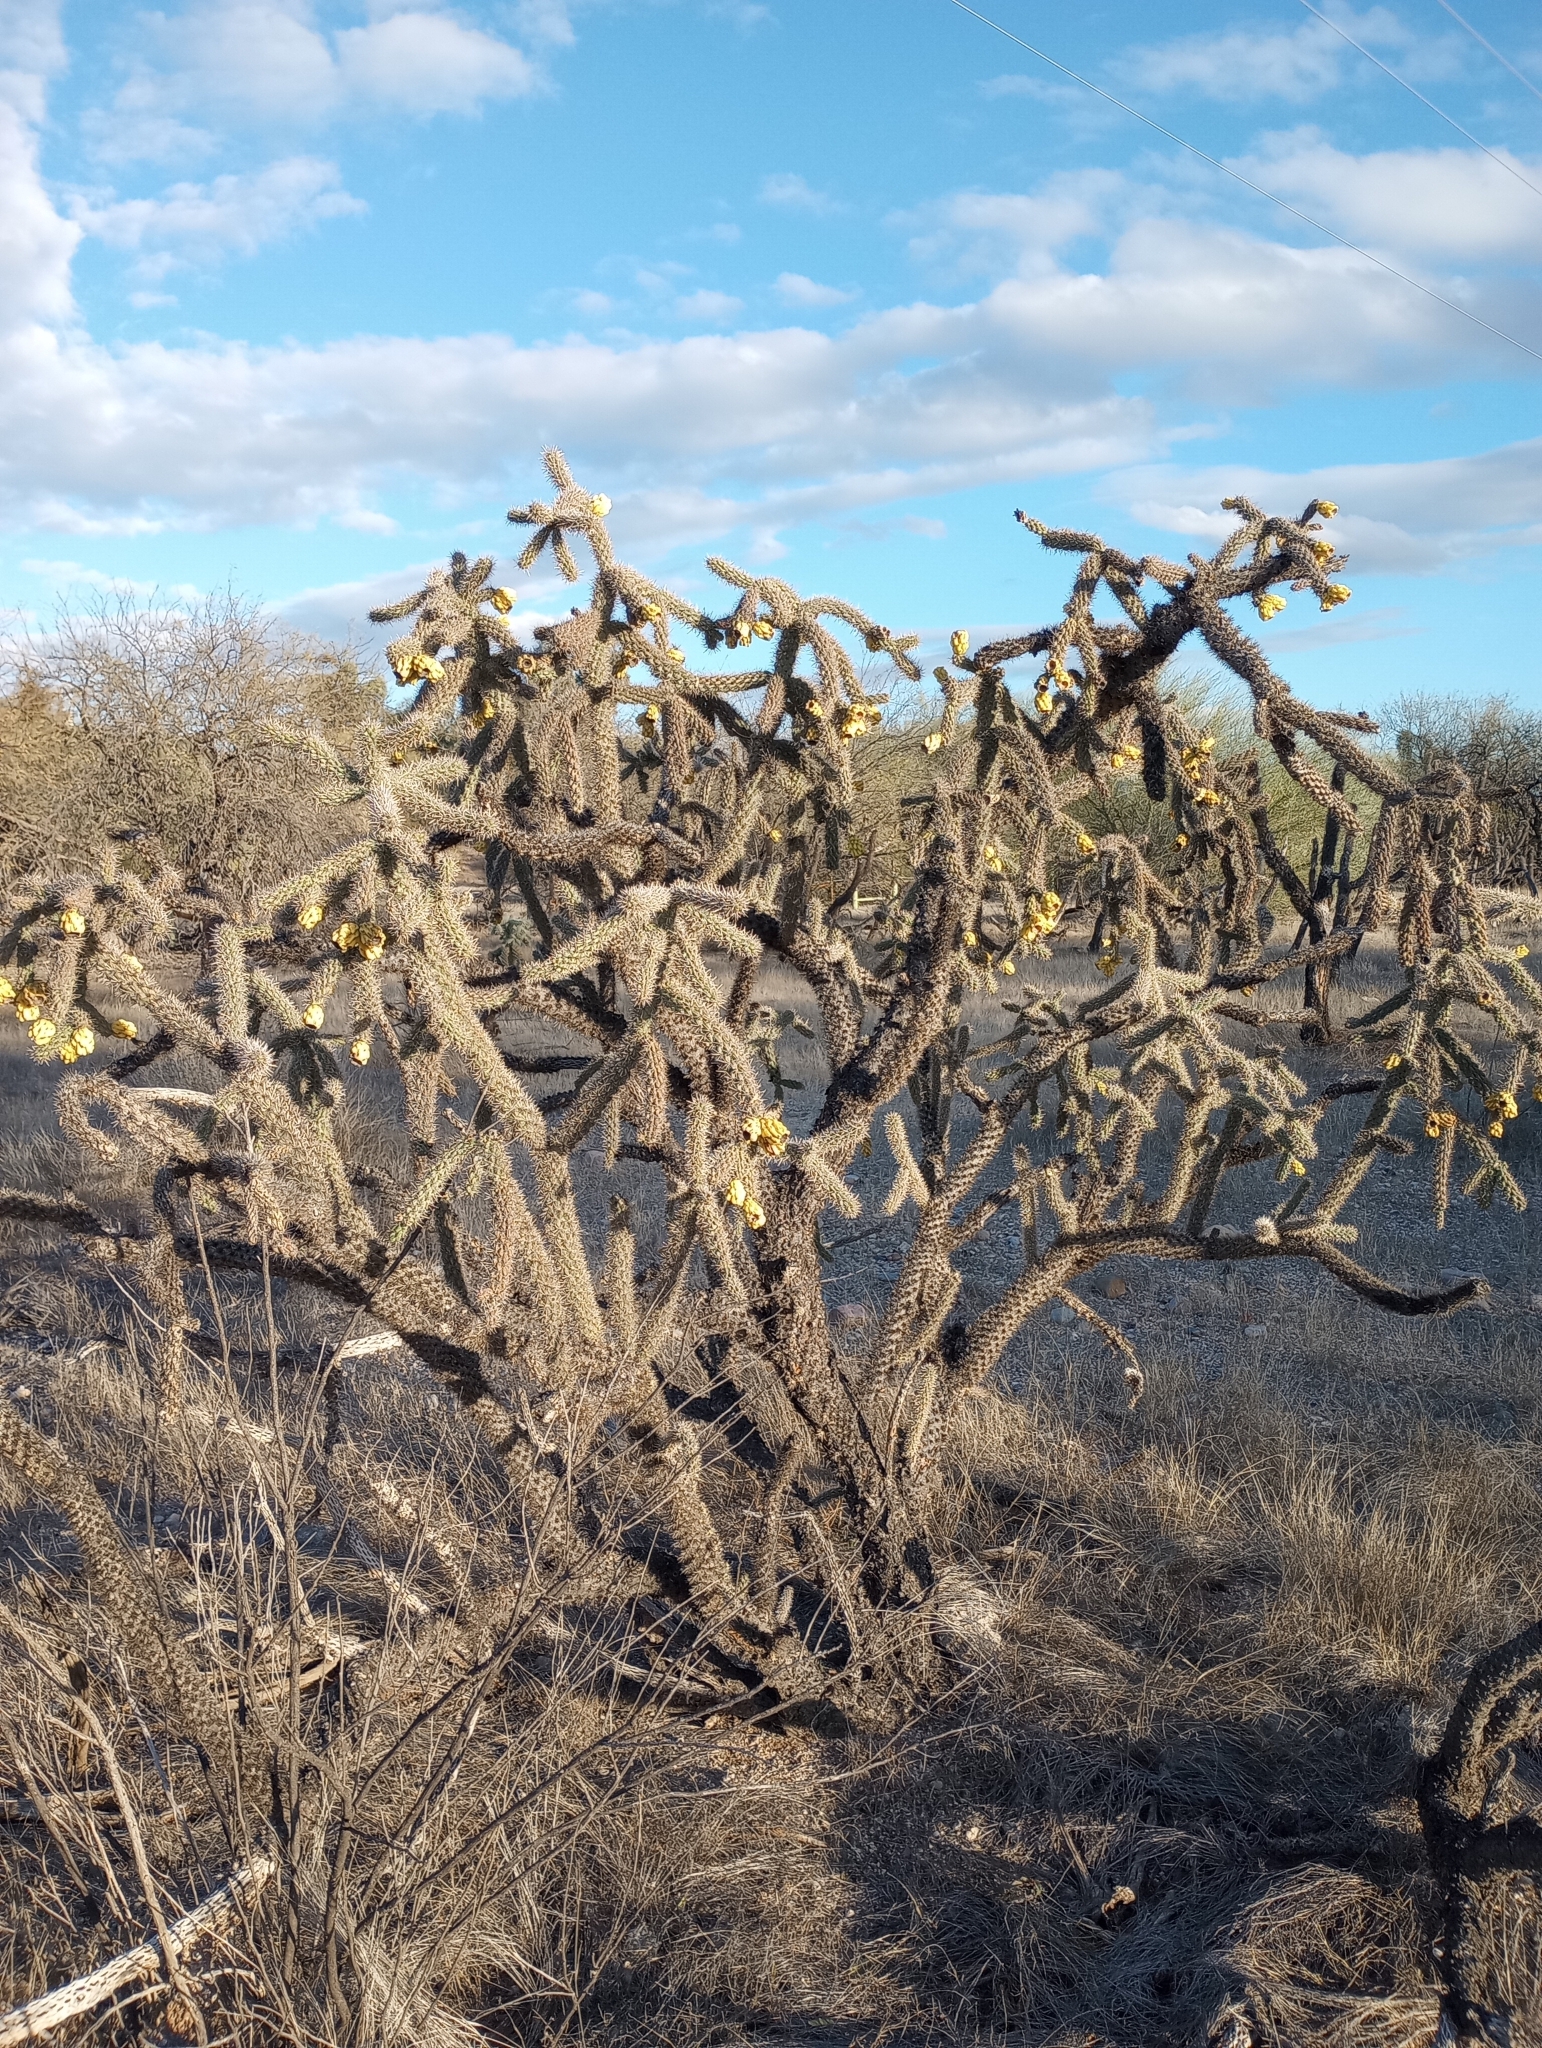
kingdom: Plantae
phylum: Tracheophyta
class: Magnoliopsida
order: Caryophyllales
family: Cactaceae
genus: Cylindropuntia
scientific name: Cylindropuntia imbricata
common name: Candelabrum cactus
